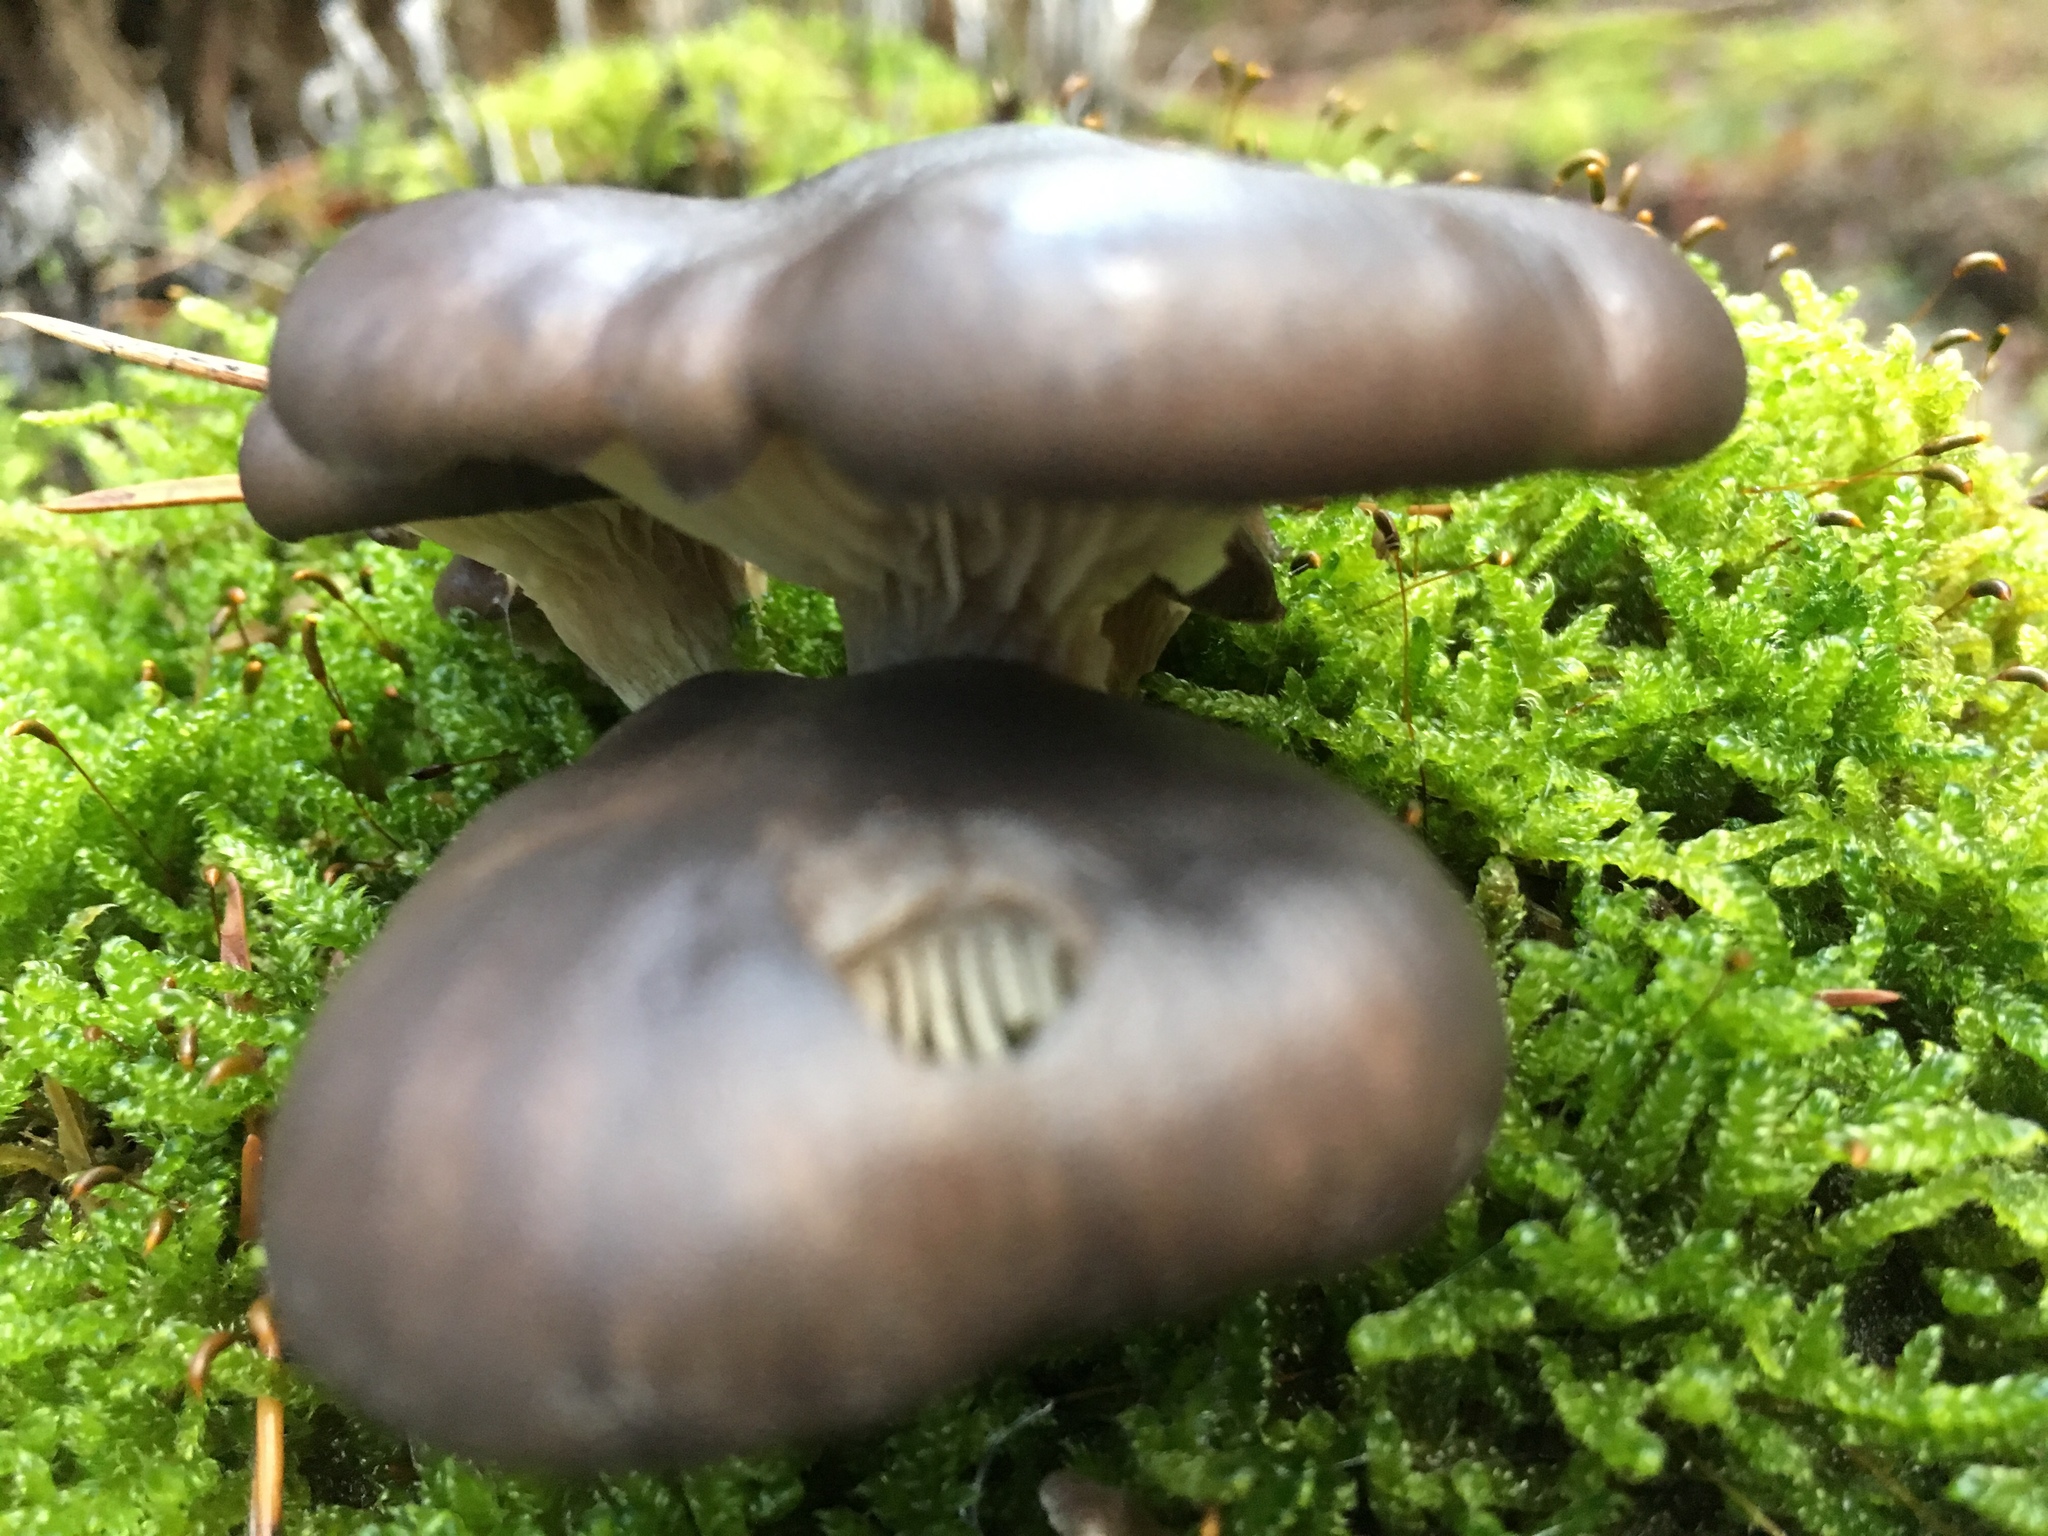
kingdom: Fungi
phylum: Basidiomycota
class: Agaricomycetes
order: Agaricales
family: Pleurotaceae
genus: Pleurotus
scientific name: Pleurotus ostreatus
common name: Oyster mushroom
